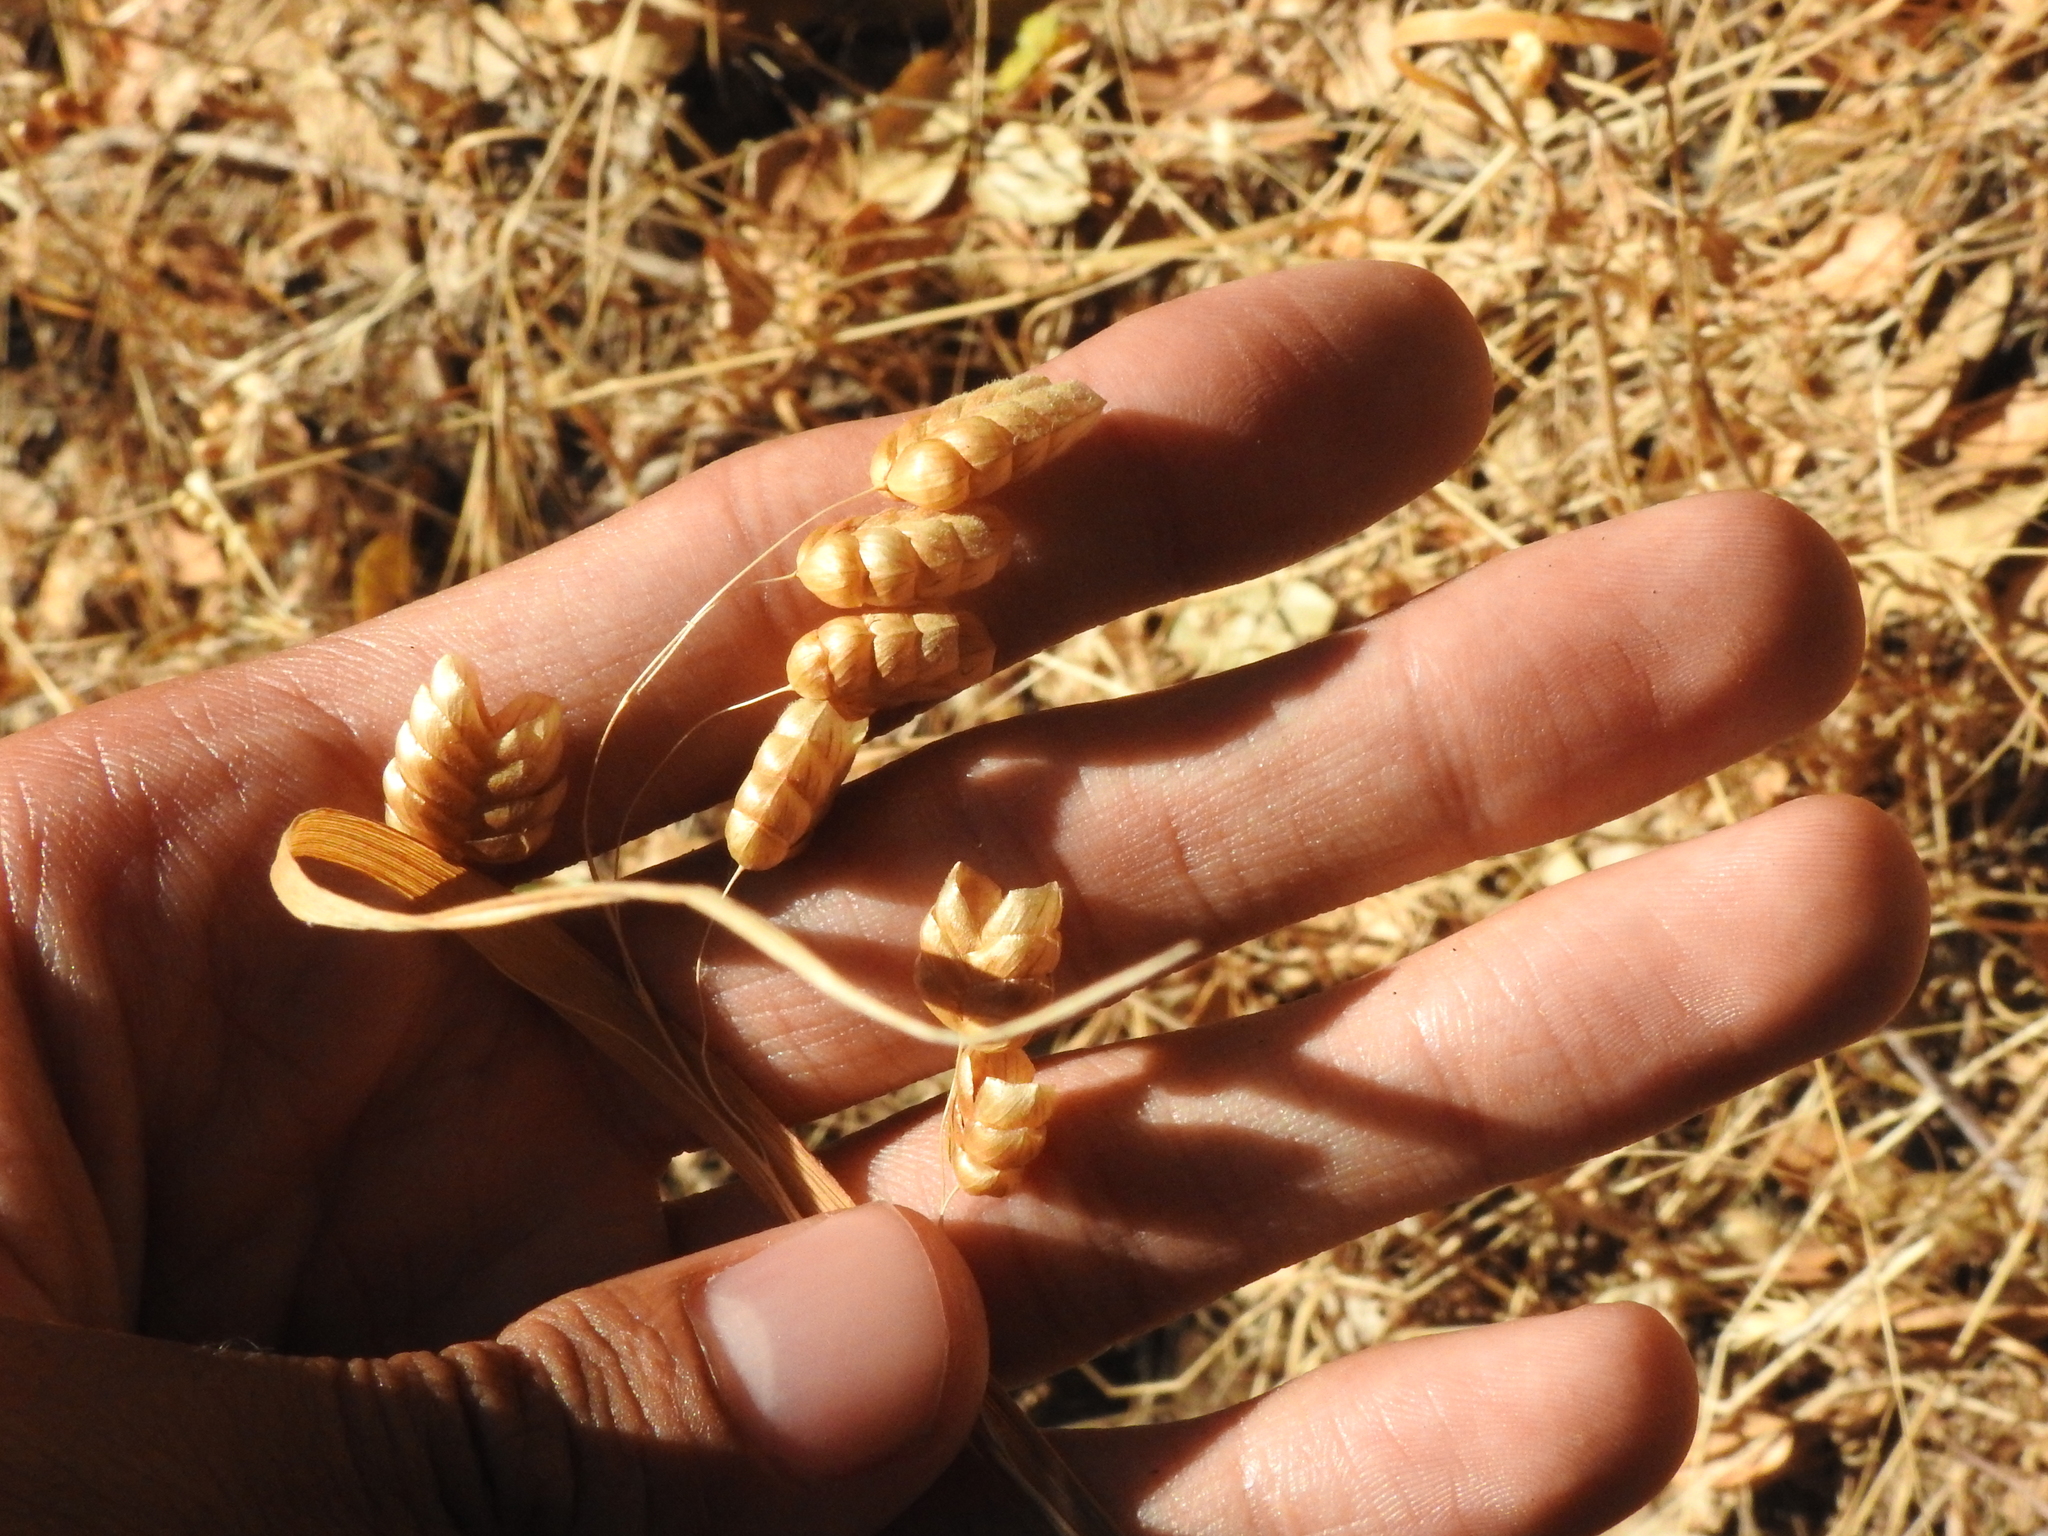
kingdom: Plantae
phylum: Tracheophyta
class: Liliopsida
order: Poales
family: Poaceae
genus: Briza
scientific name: Briza maxima
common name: Big quakinggrass
